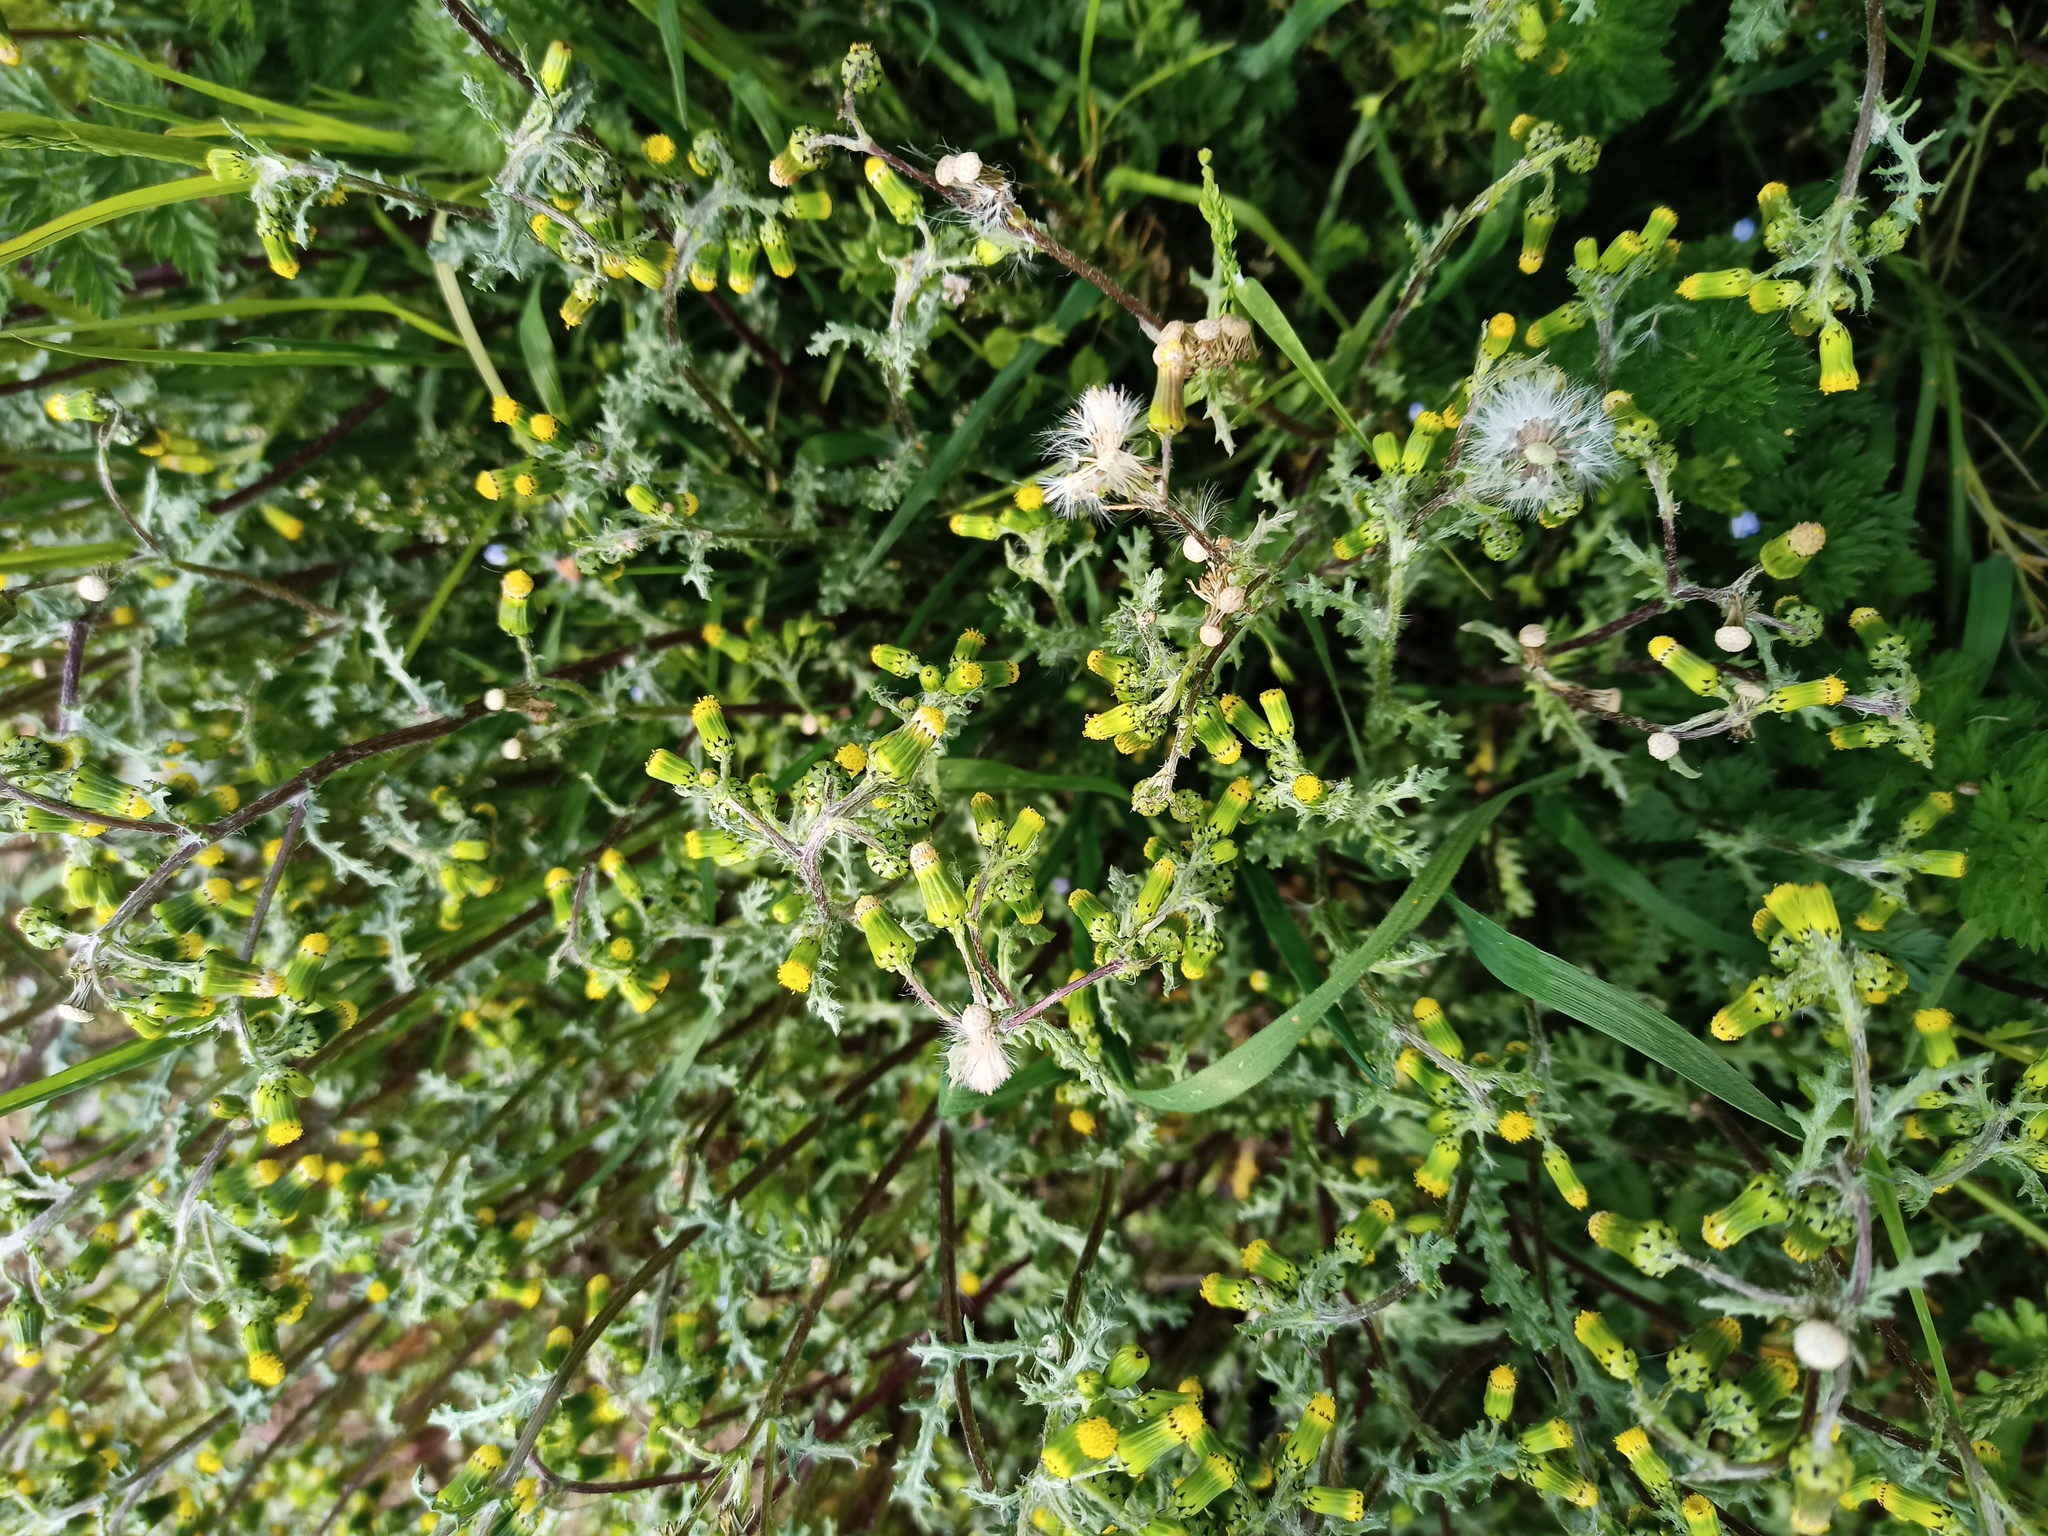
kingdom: Plantae
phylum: Tracheophyta
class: Magnoliopsida
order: Asterales
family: Asteraceae
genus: Senecio
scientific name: Senecio vulgaris
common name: Old-man-in-the-spring
